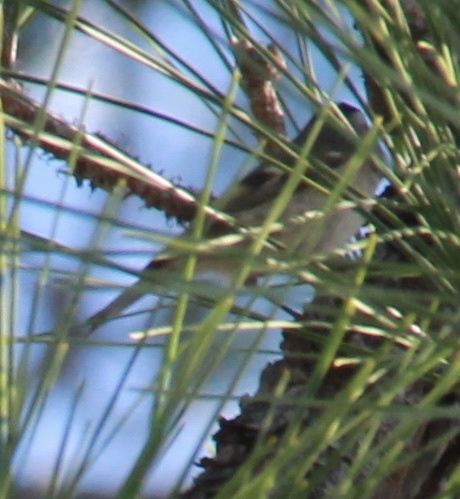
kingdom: Animalia
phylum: Chordata
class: Aves
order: Passeriformes
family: Regulidae
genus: Regulus
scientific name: Regulus satrapa
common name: Golden-crowned kinglet
